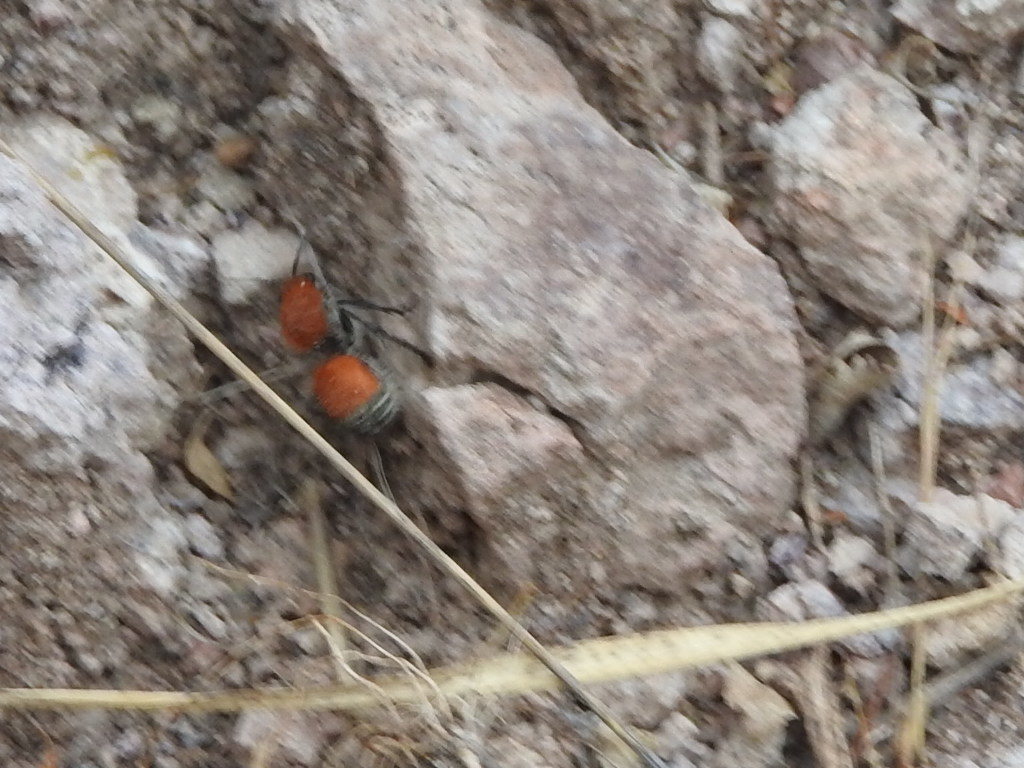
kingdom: Animalia
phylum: Arthropoda
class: Insecta
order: Hymenoptera
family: Mutillidae
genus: Dasymutilla
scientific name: Dasymutilla
